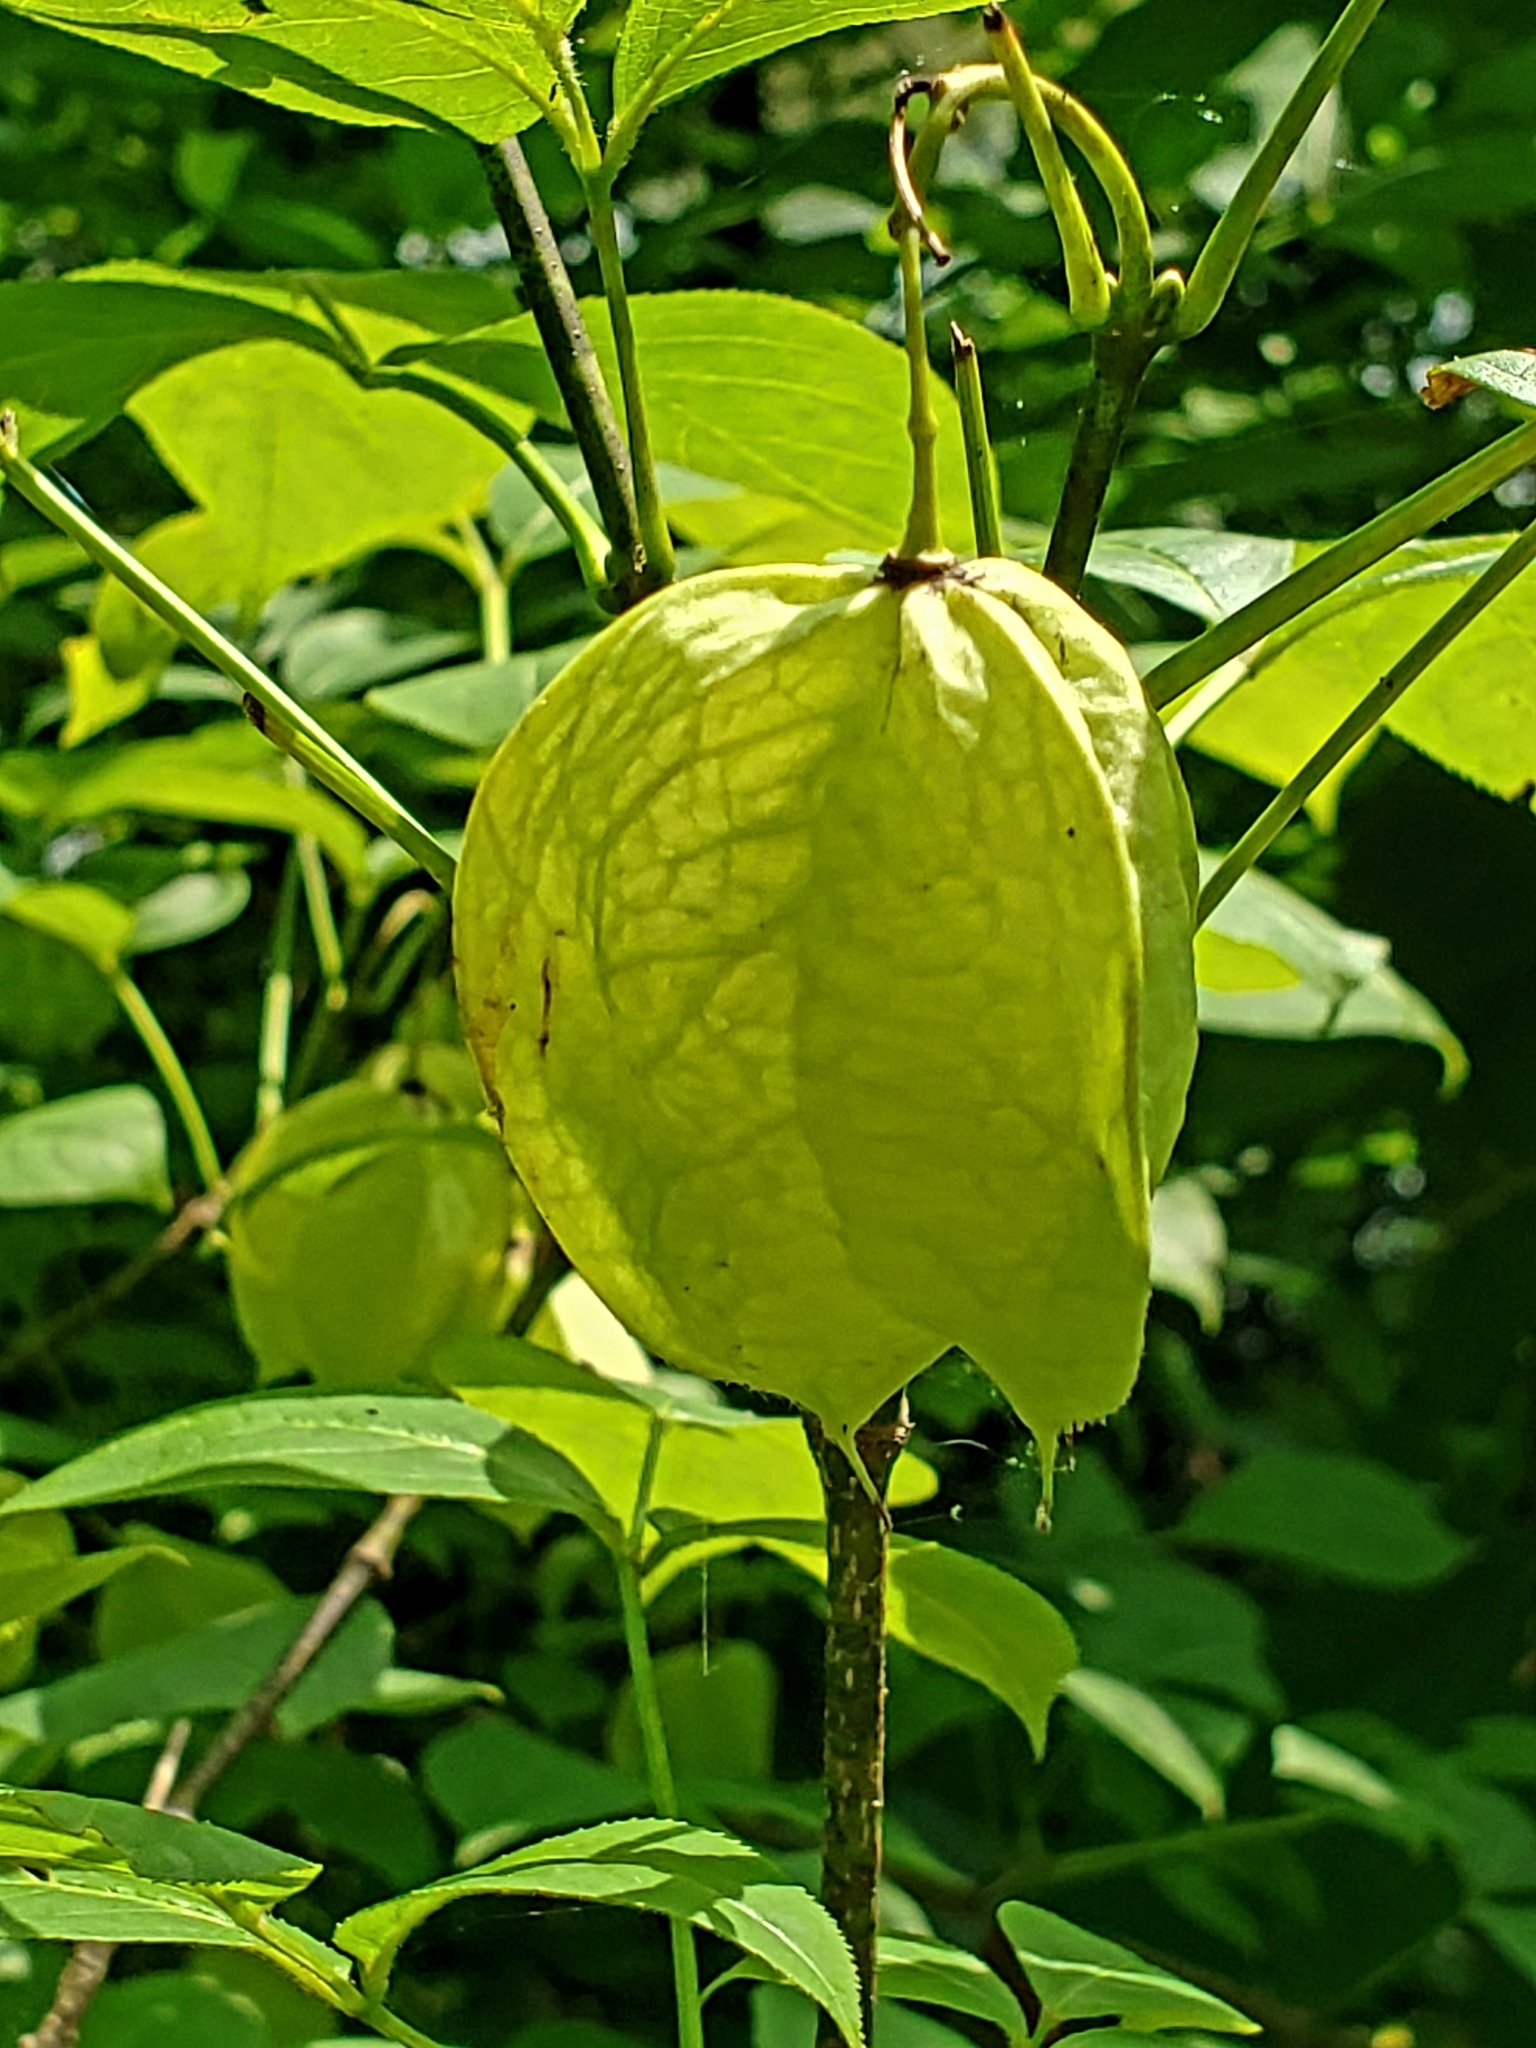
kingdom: Plantae
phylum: Tracheophyta
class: Magnoliopsida
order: Crossosomatales
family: Staphyleaceae
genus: Staphylea
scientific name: Staphylea trifolia
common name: American bladdernut
